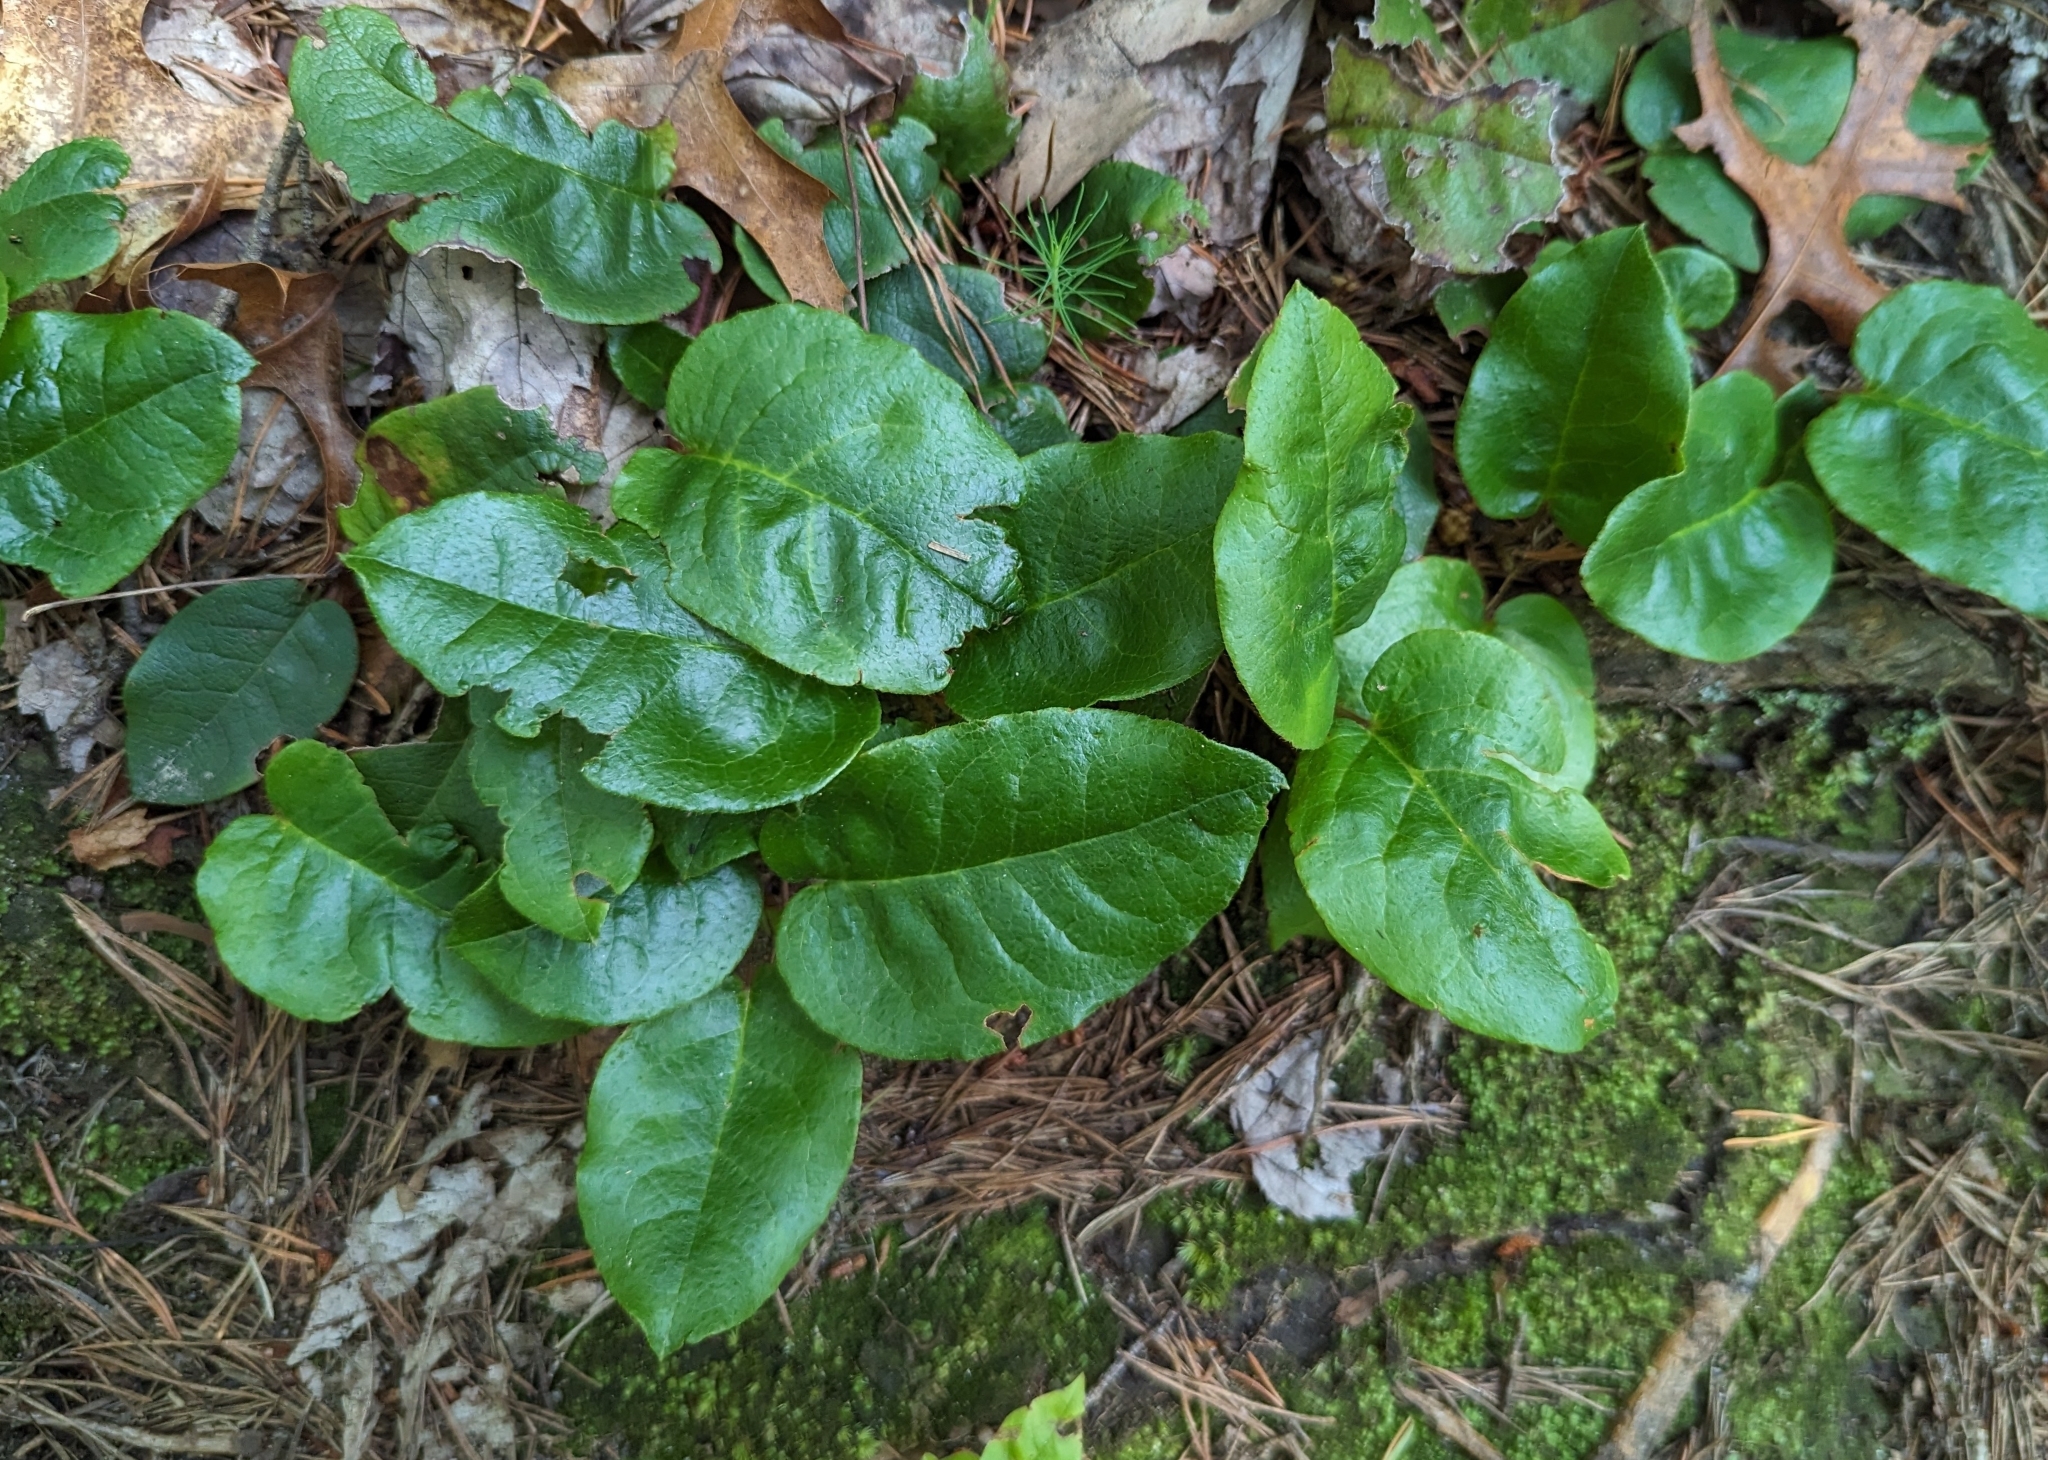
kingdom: Plantae
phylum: Tracheophyta
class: Magnoliopsida
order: Ericales
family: Ericaceae
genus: Epigaea
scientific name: Epigaea repens
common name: Gravelroot
